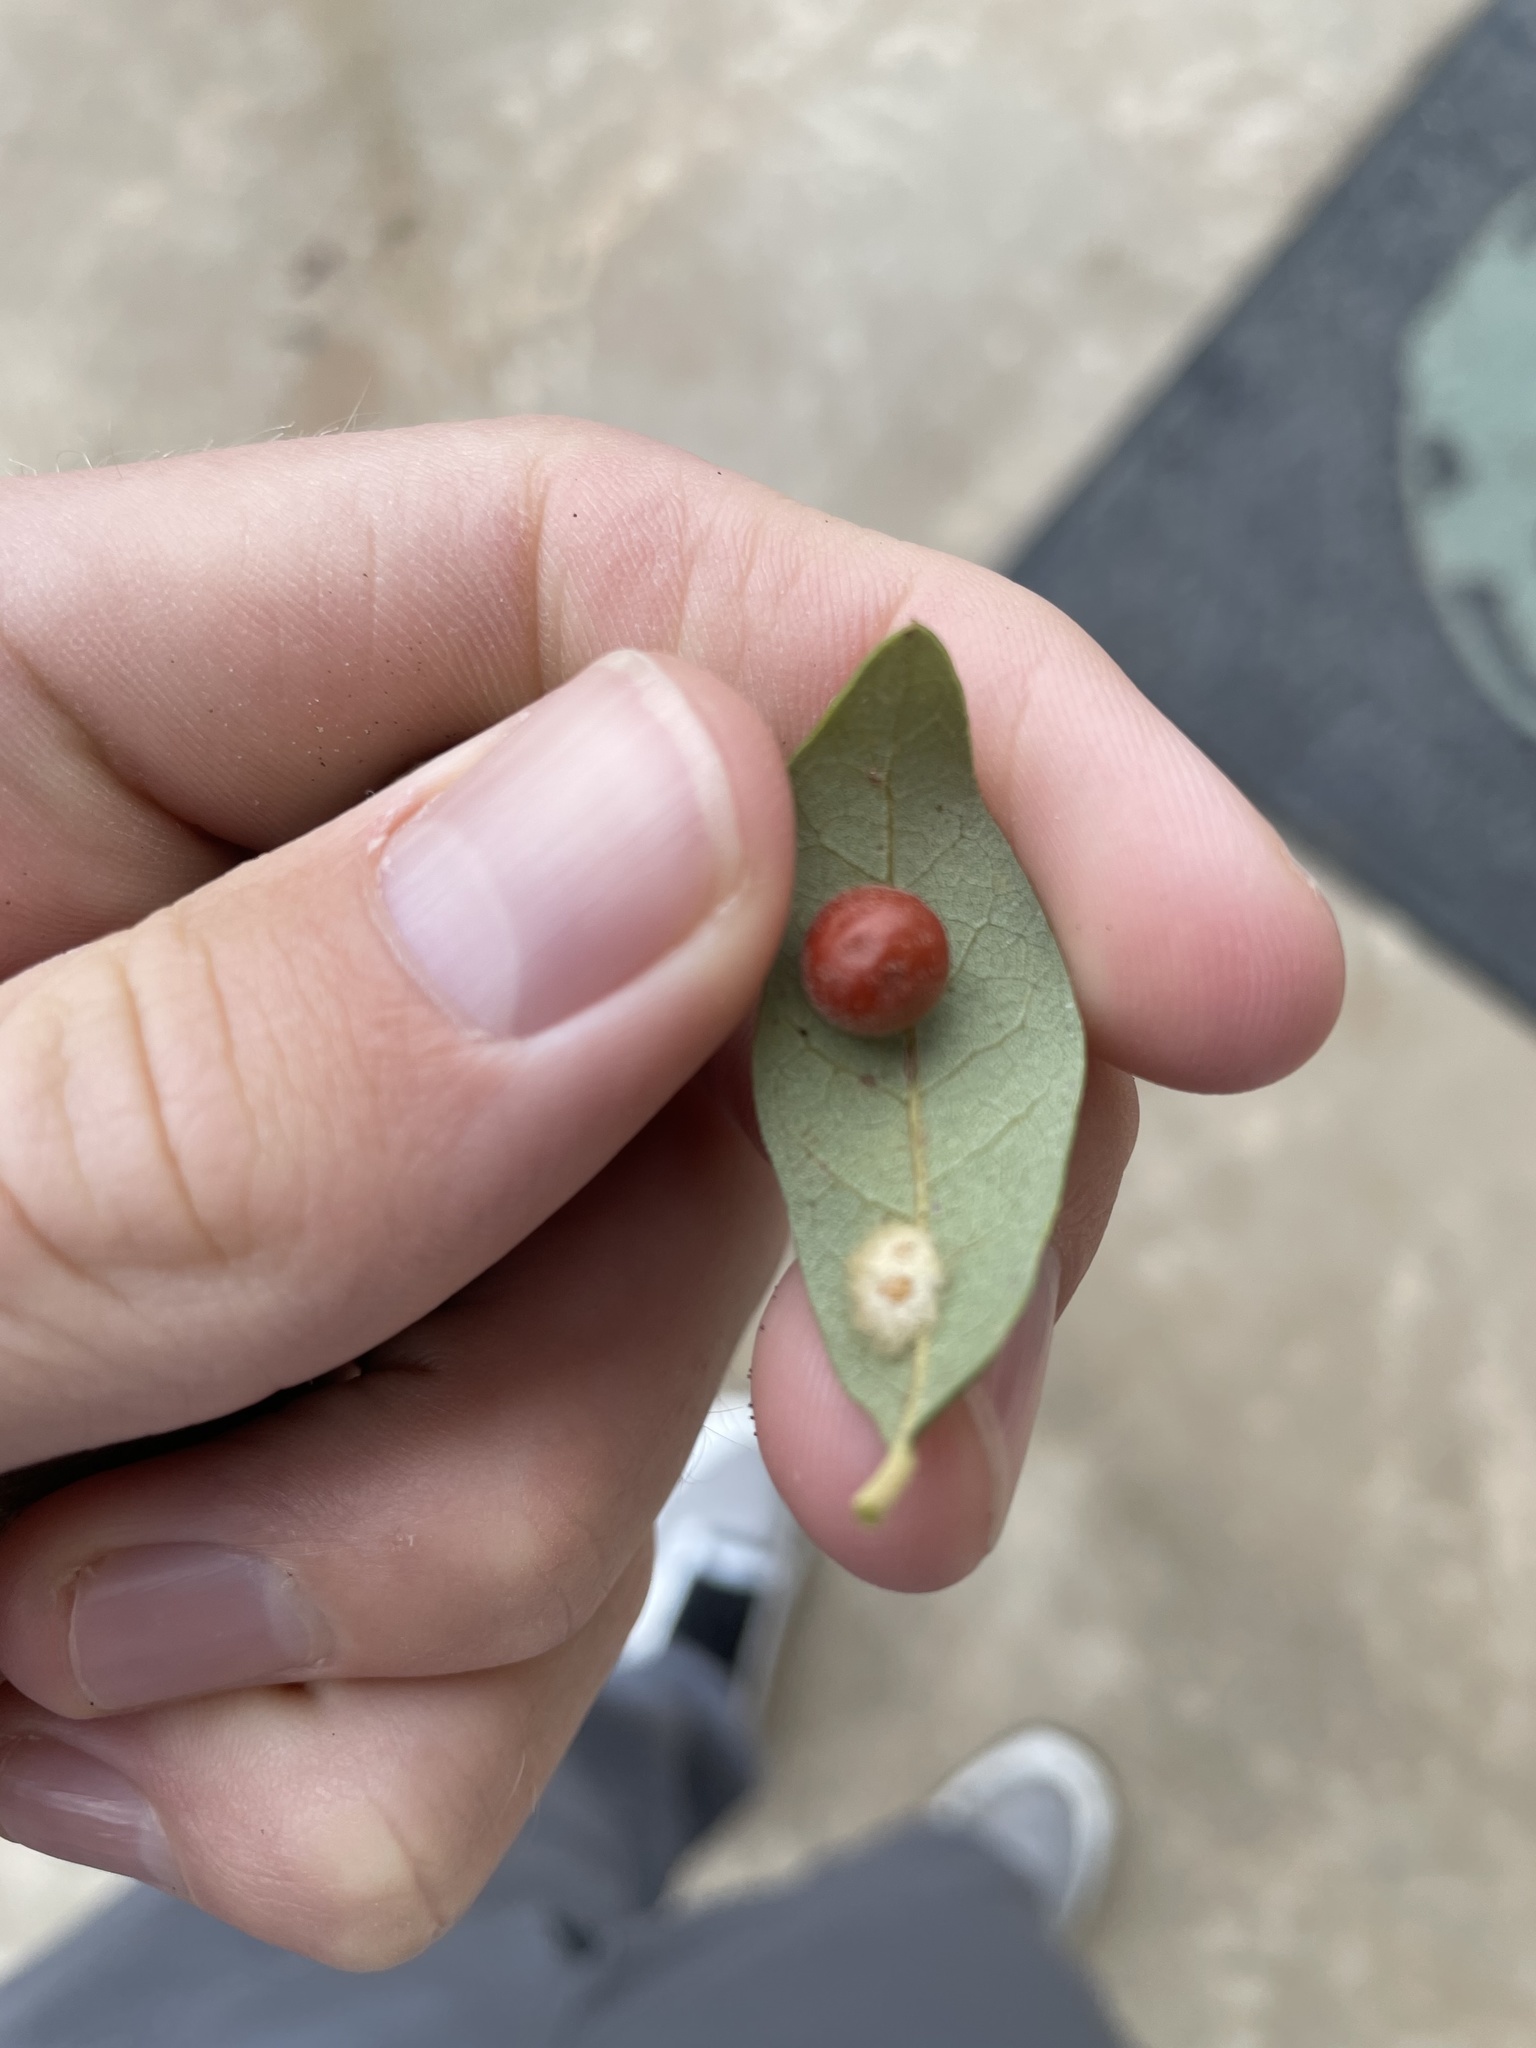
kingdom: Animalia
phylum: Arthropoda
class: Insecta
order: Hymenoptera
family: Cynipidae
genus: Belonocnema
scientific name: Belonocnema kinseyi
